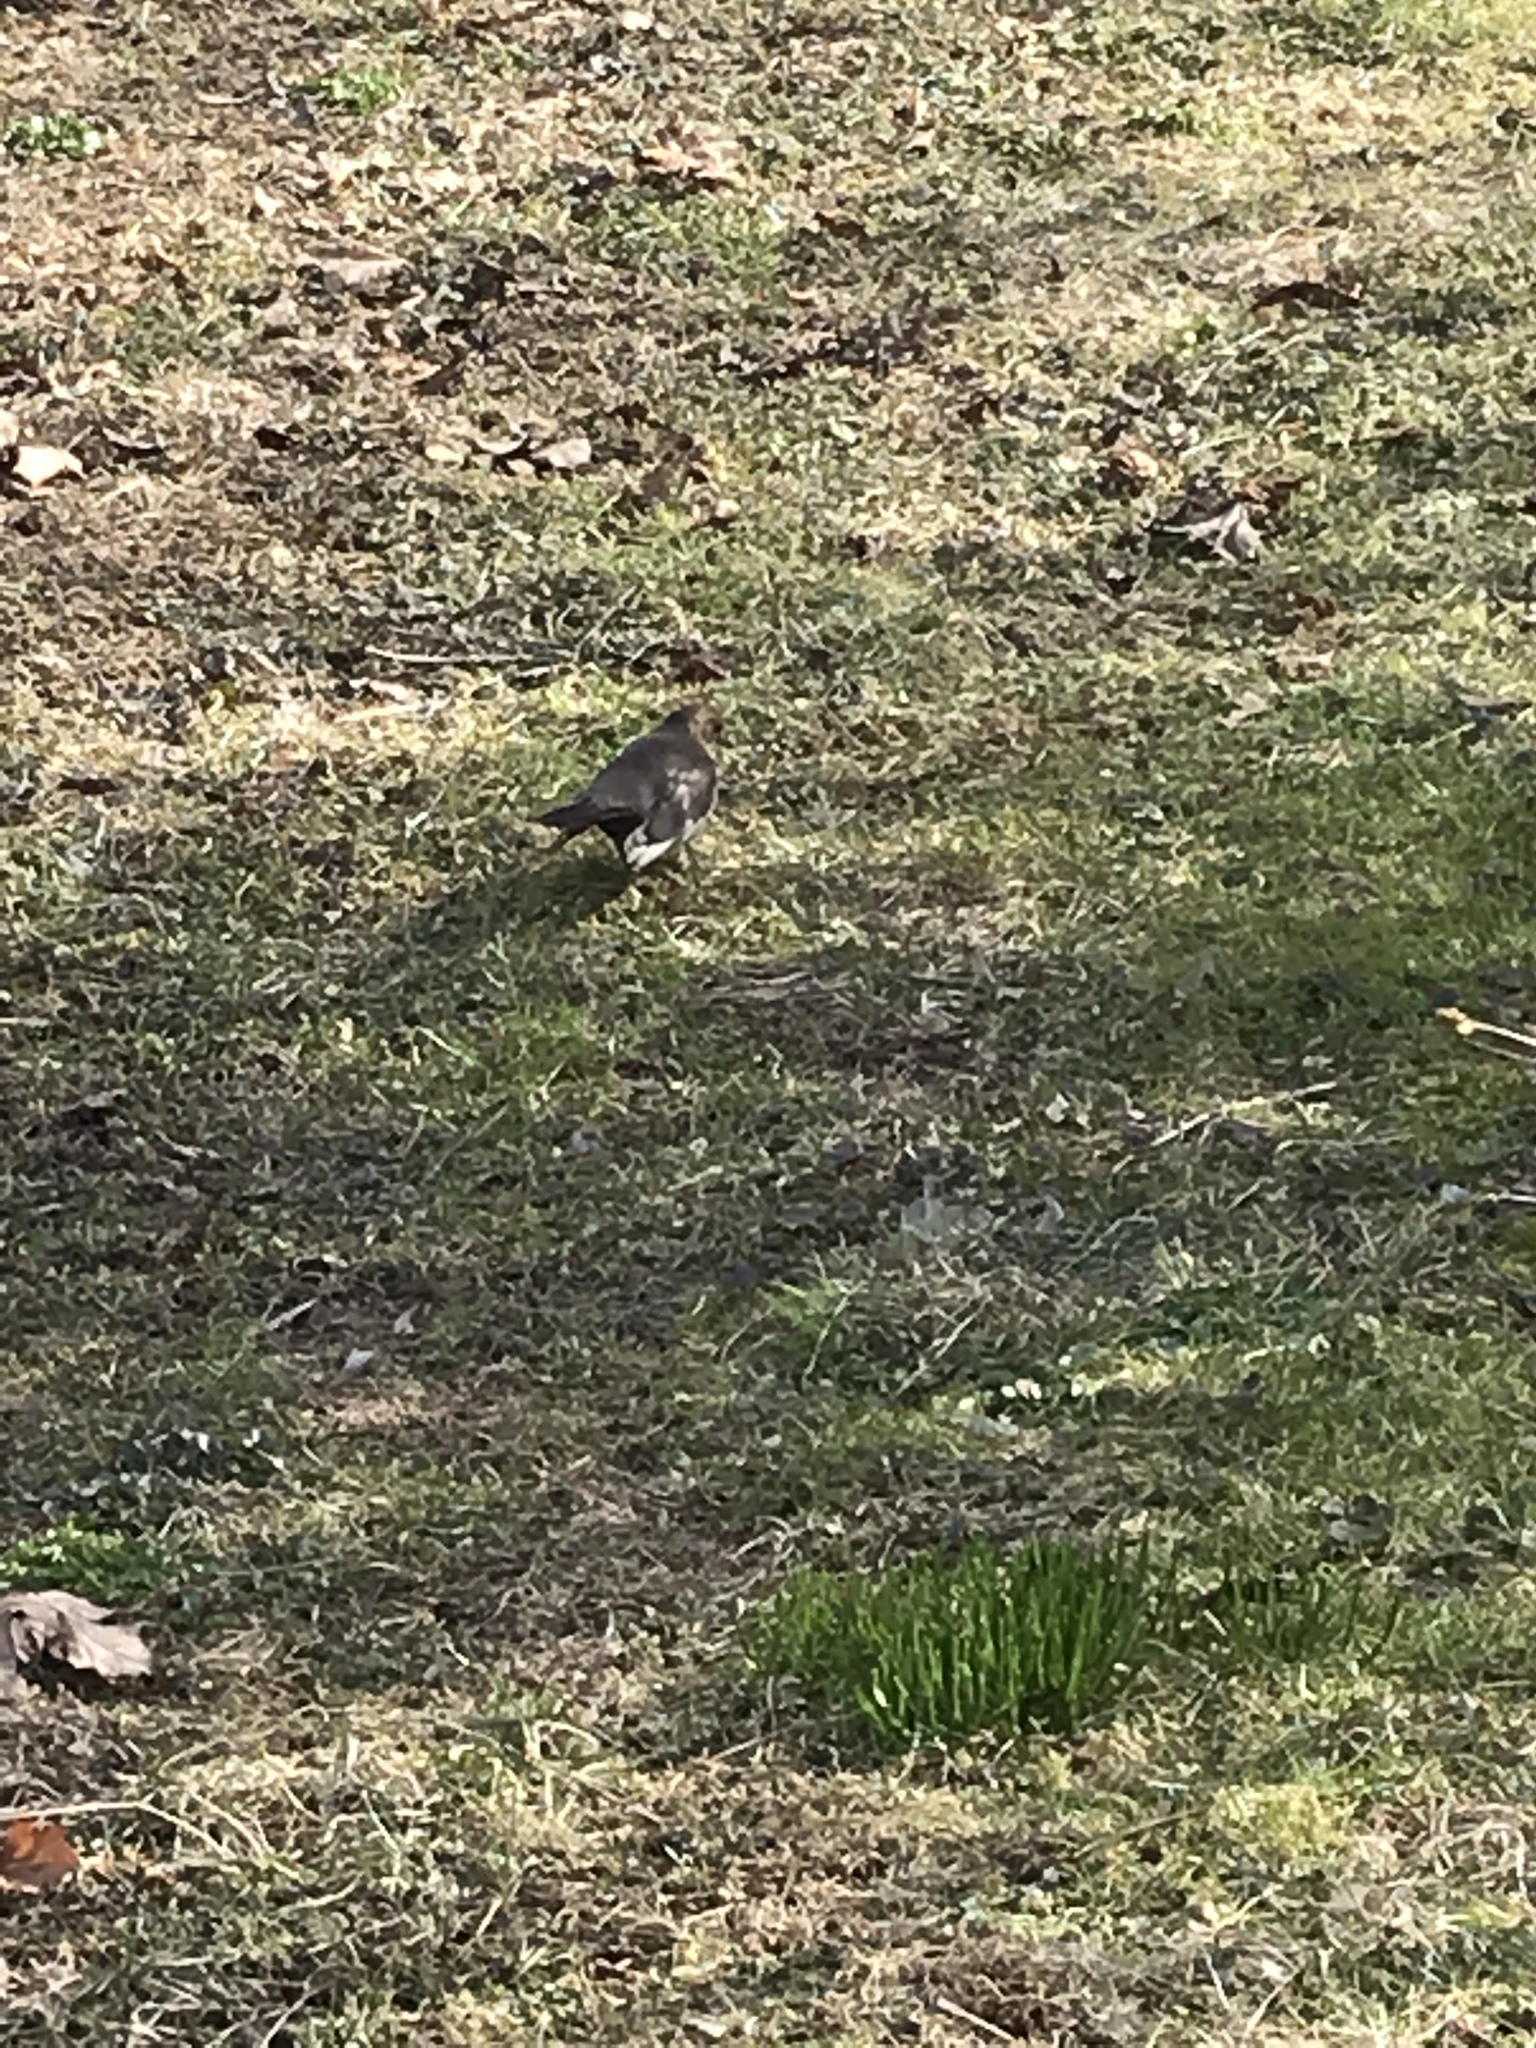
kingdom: Animalia
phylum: Chordata
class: Aves
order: Passeriformes
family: Turdidae
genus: Turdus
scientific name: Turdus merula
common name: Common blackbird
